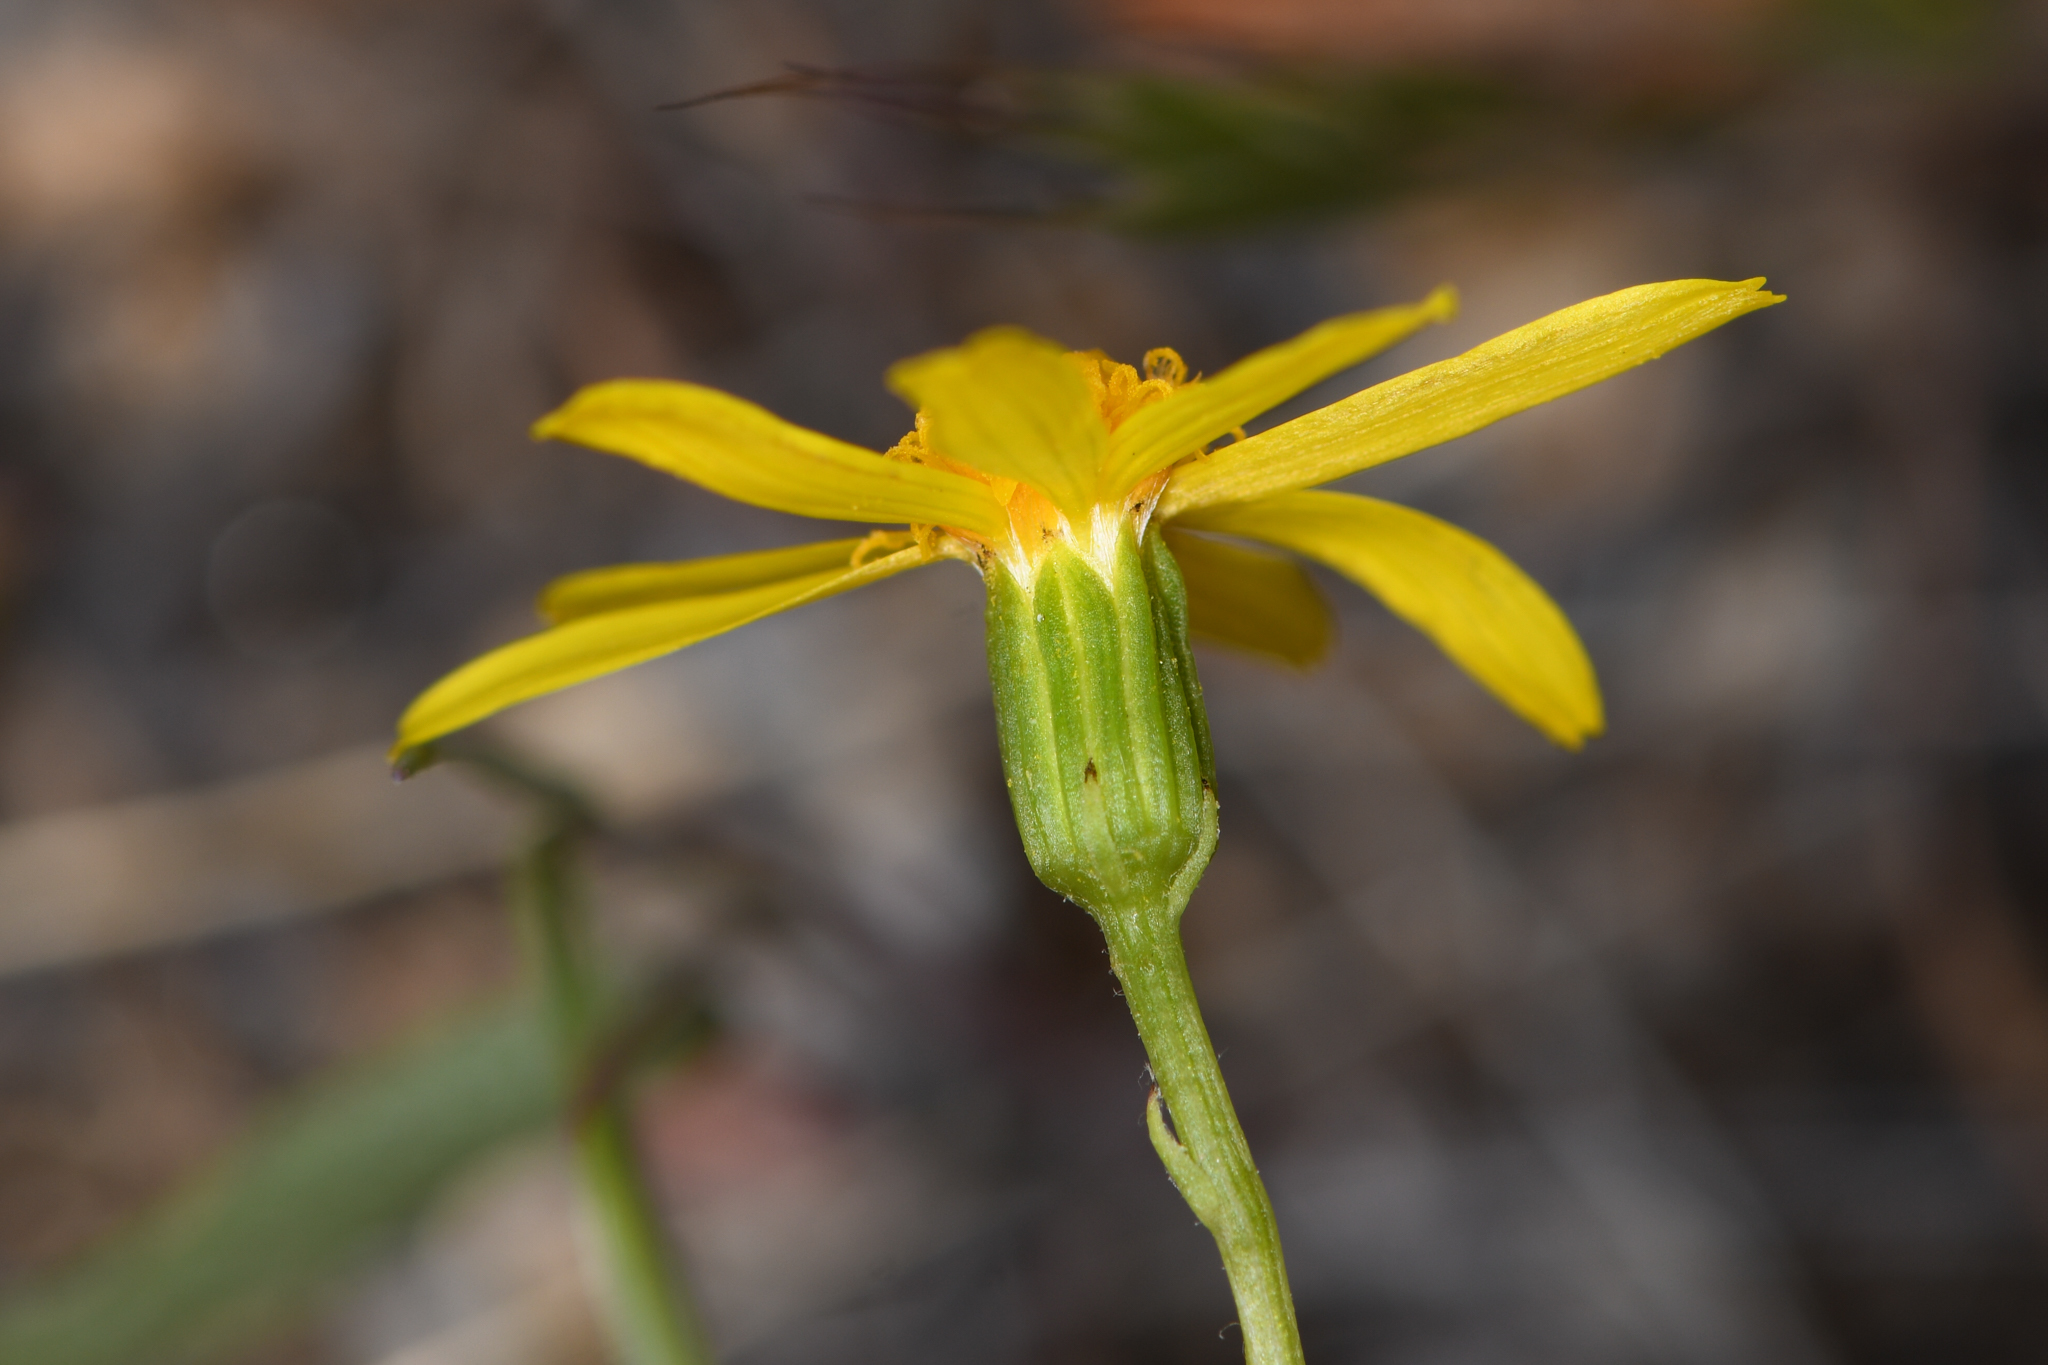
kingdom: Plantae
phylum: Tracheophyta
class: Magnoliopsida
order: Asterales
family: Asteraceae
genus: Senecio
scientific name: Senecio californicus
